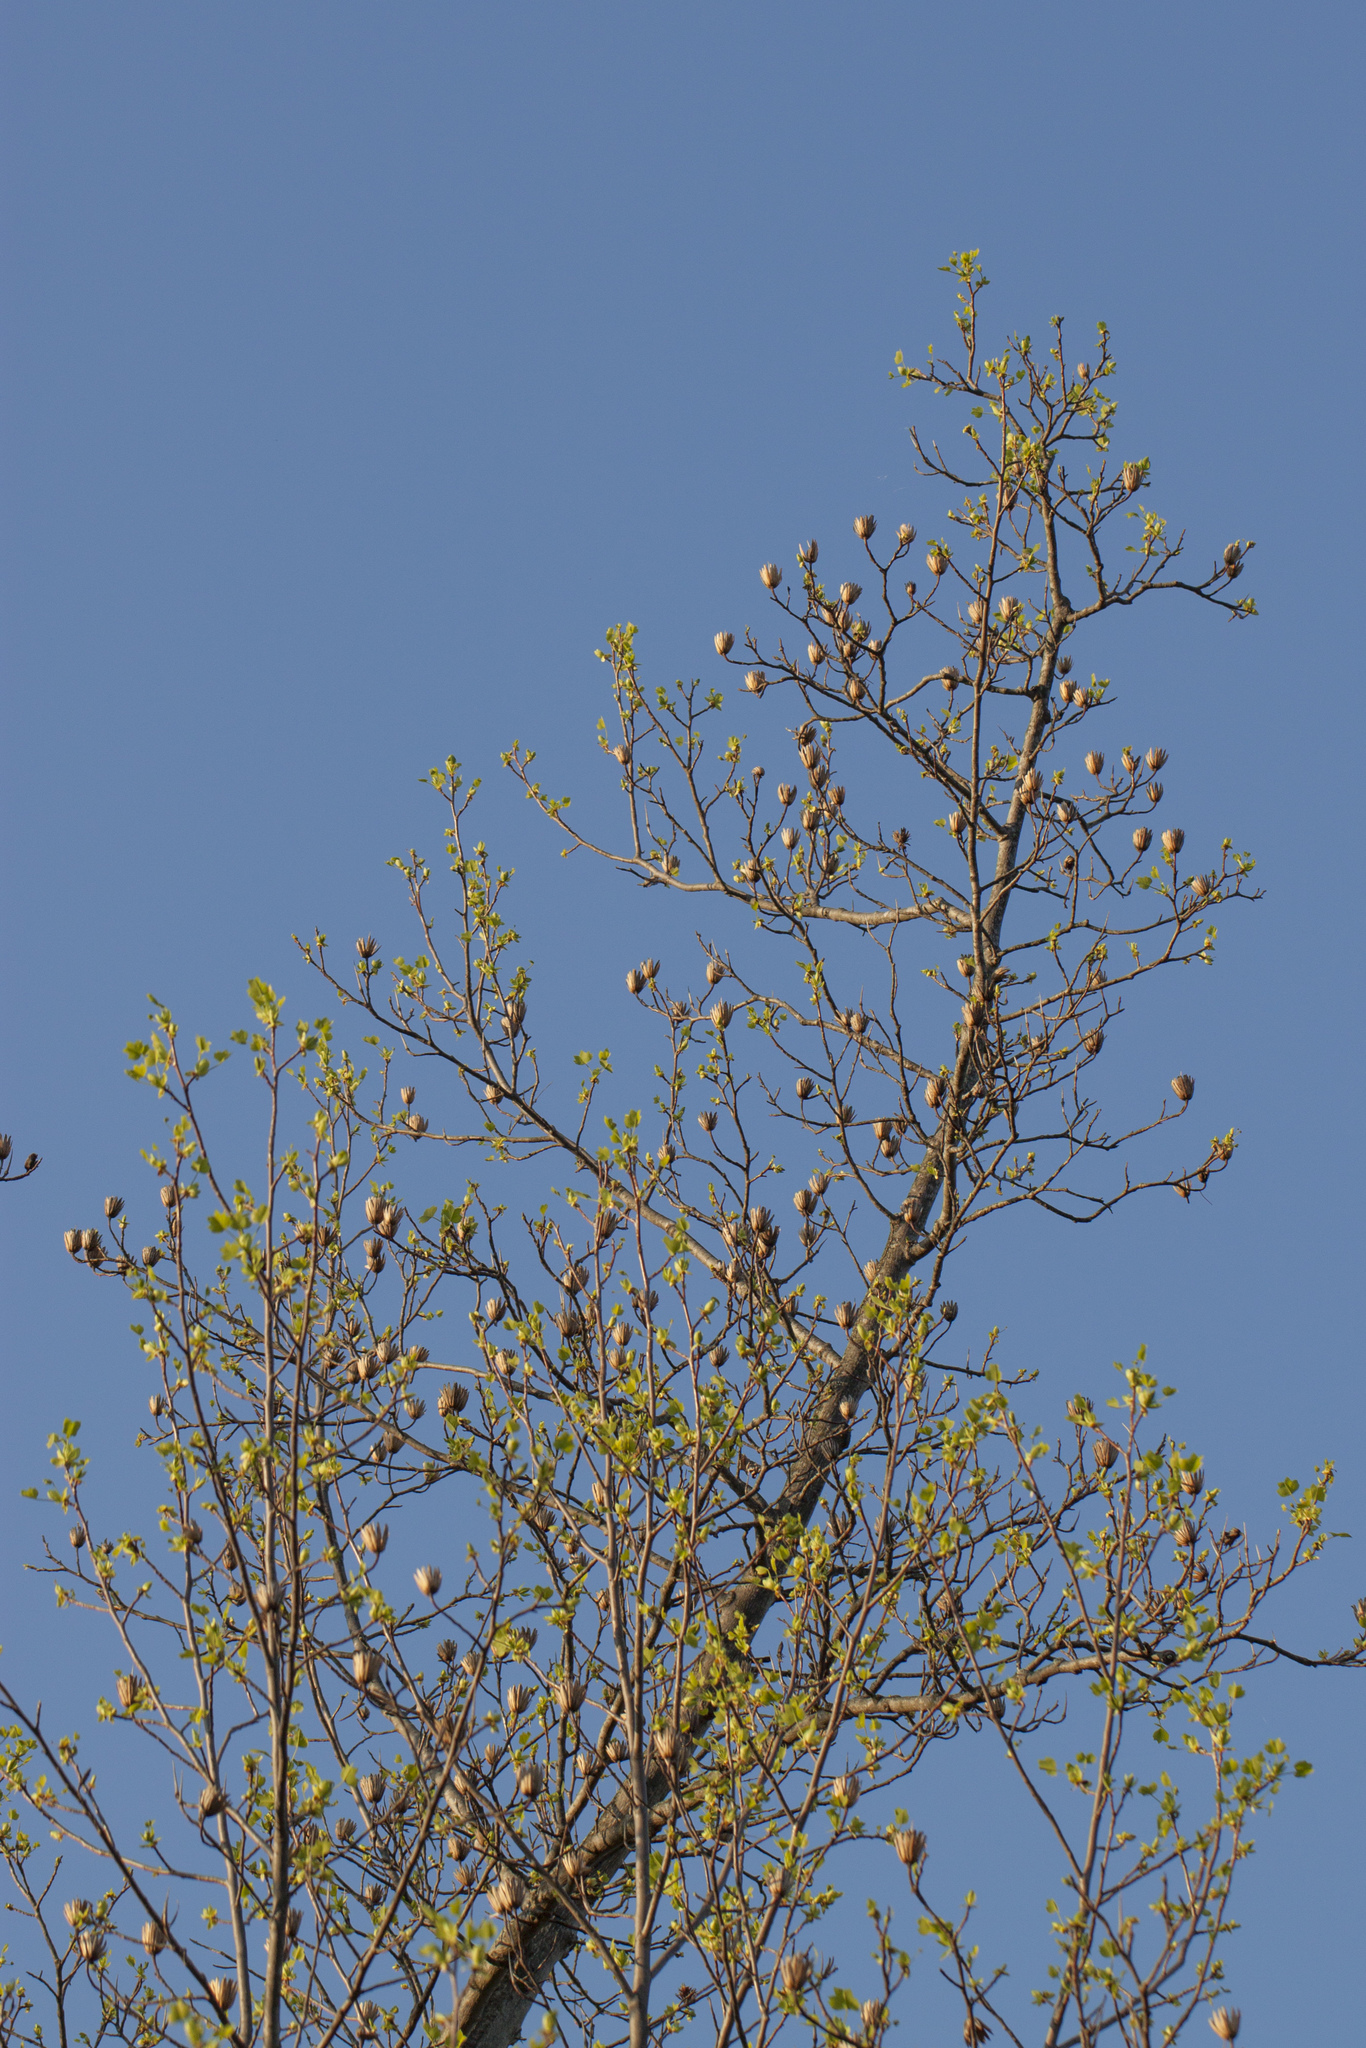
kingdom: Plantae
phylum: Tracheophyta
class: Magnoliopsida
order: Magnoliales
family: Magnoliaceae
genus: Liriodendron
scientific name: Liriodendron tulipifera
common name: Tulip tree
